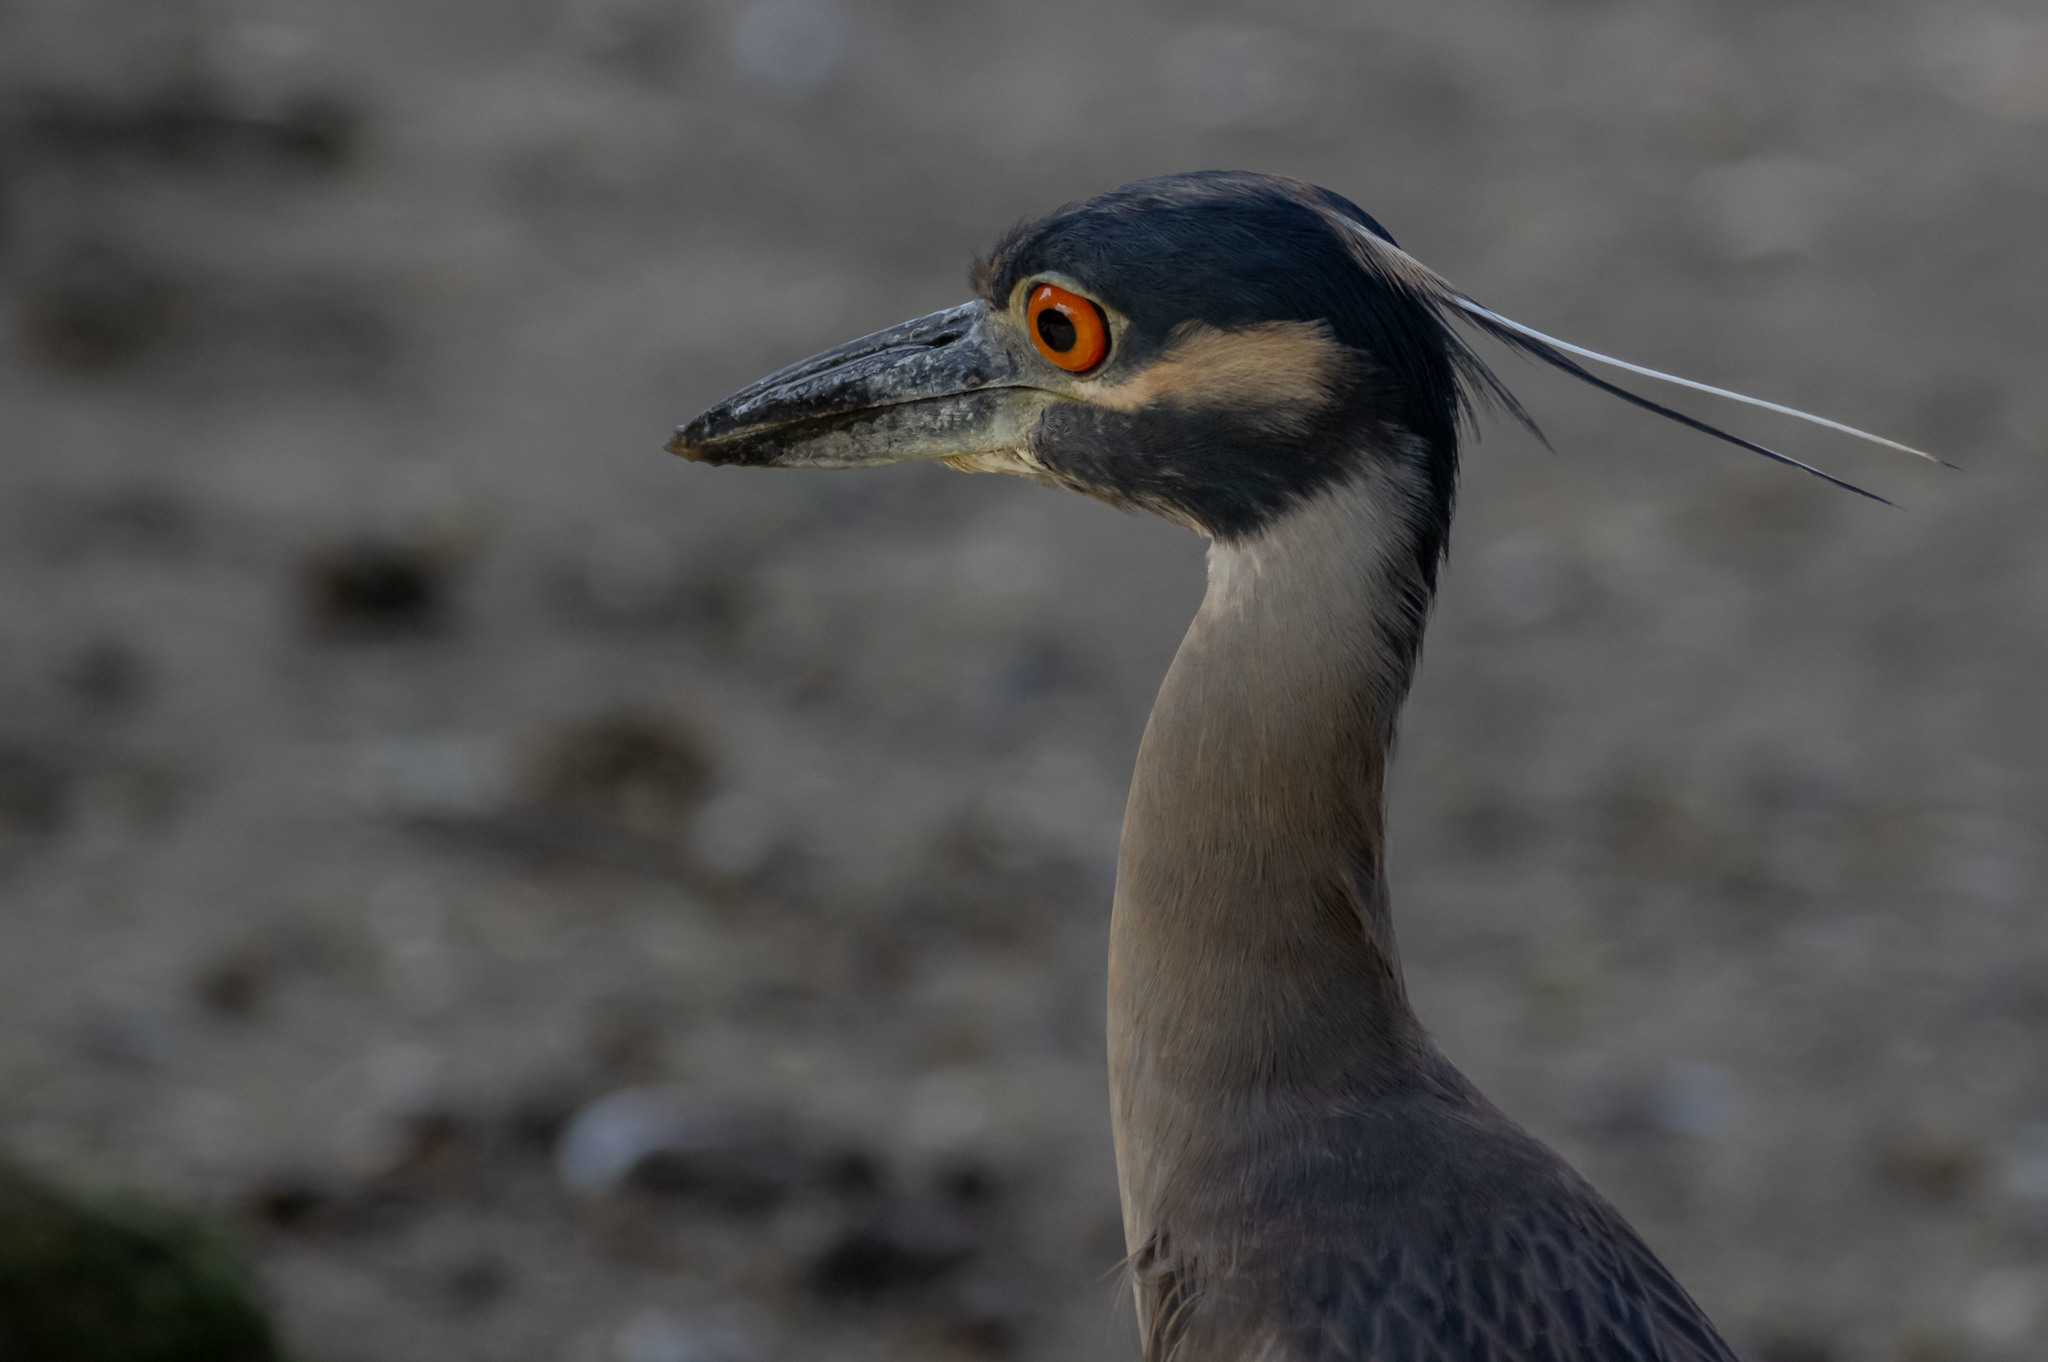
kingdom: Animalia
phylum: Chordata
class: Aves
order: Pelecaniformes
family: Ardeidae
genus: Nyctanassa
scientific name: Nyctanassa violacea
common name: Yellow-crowned night heron
